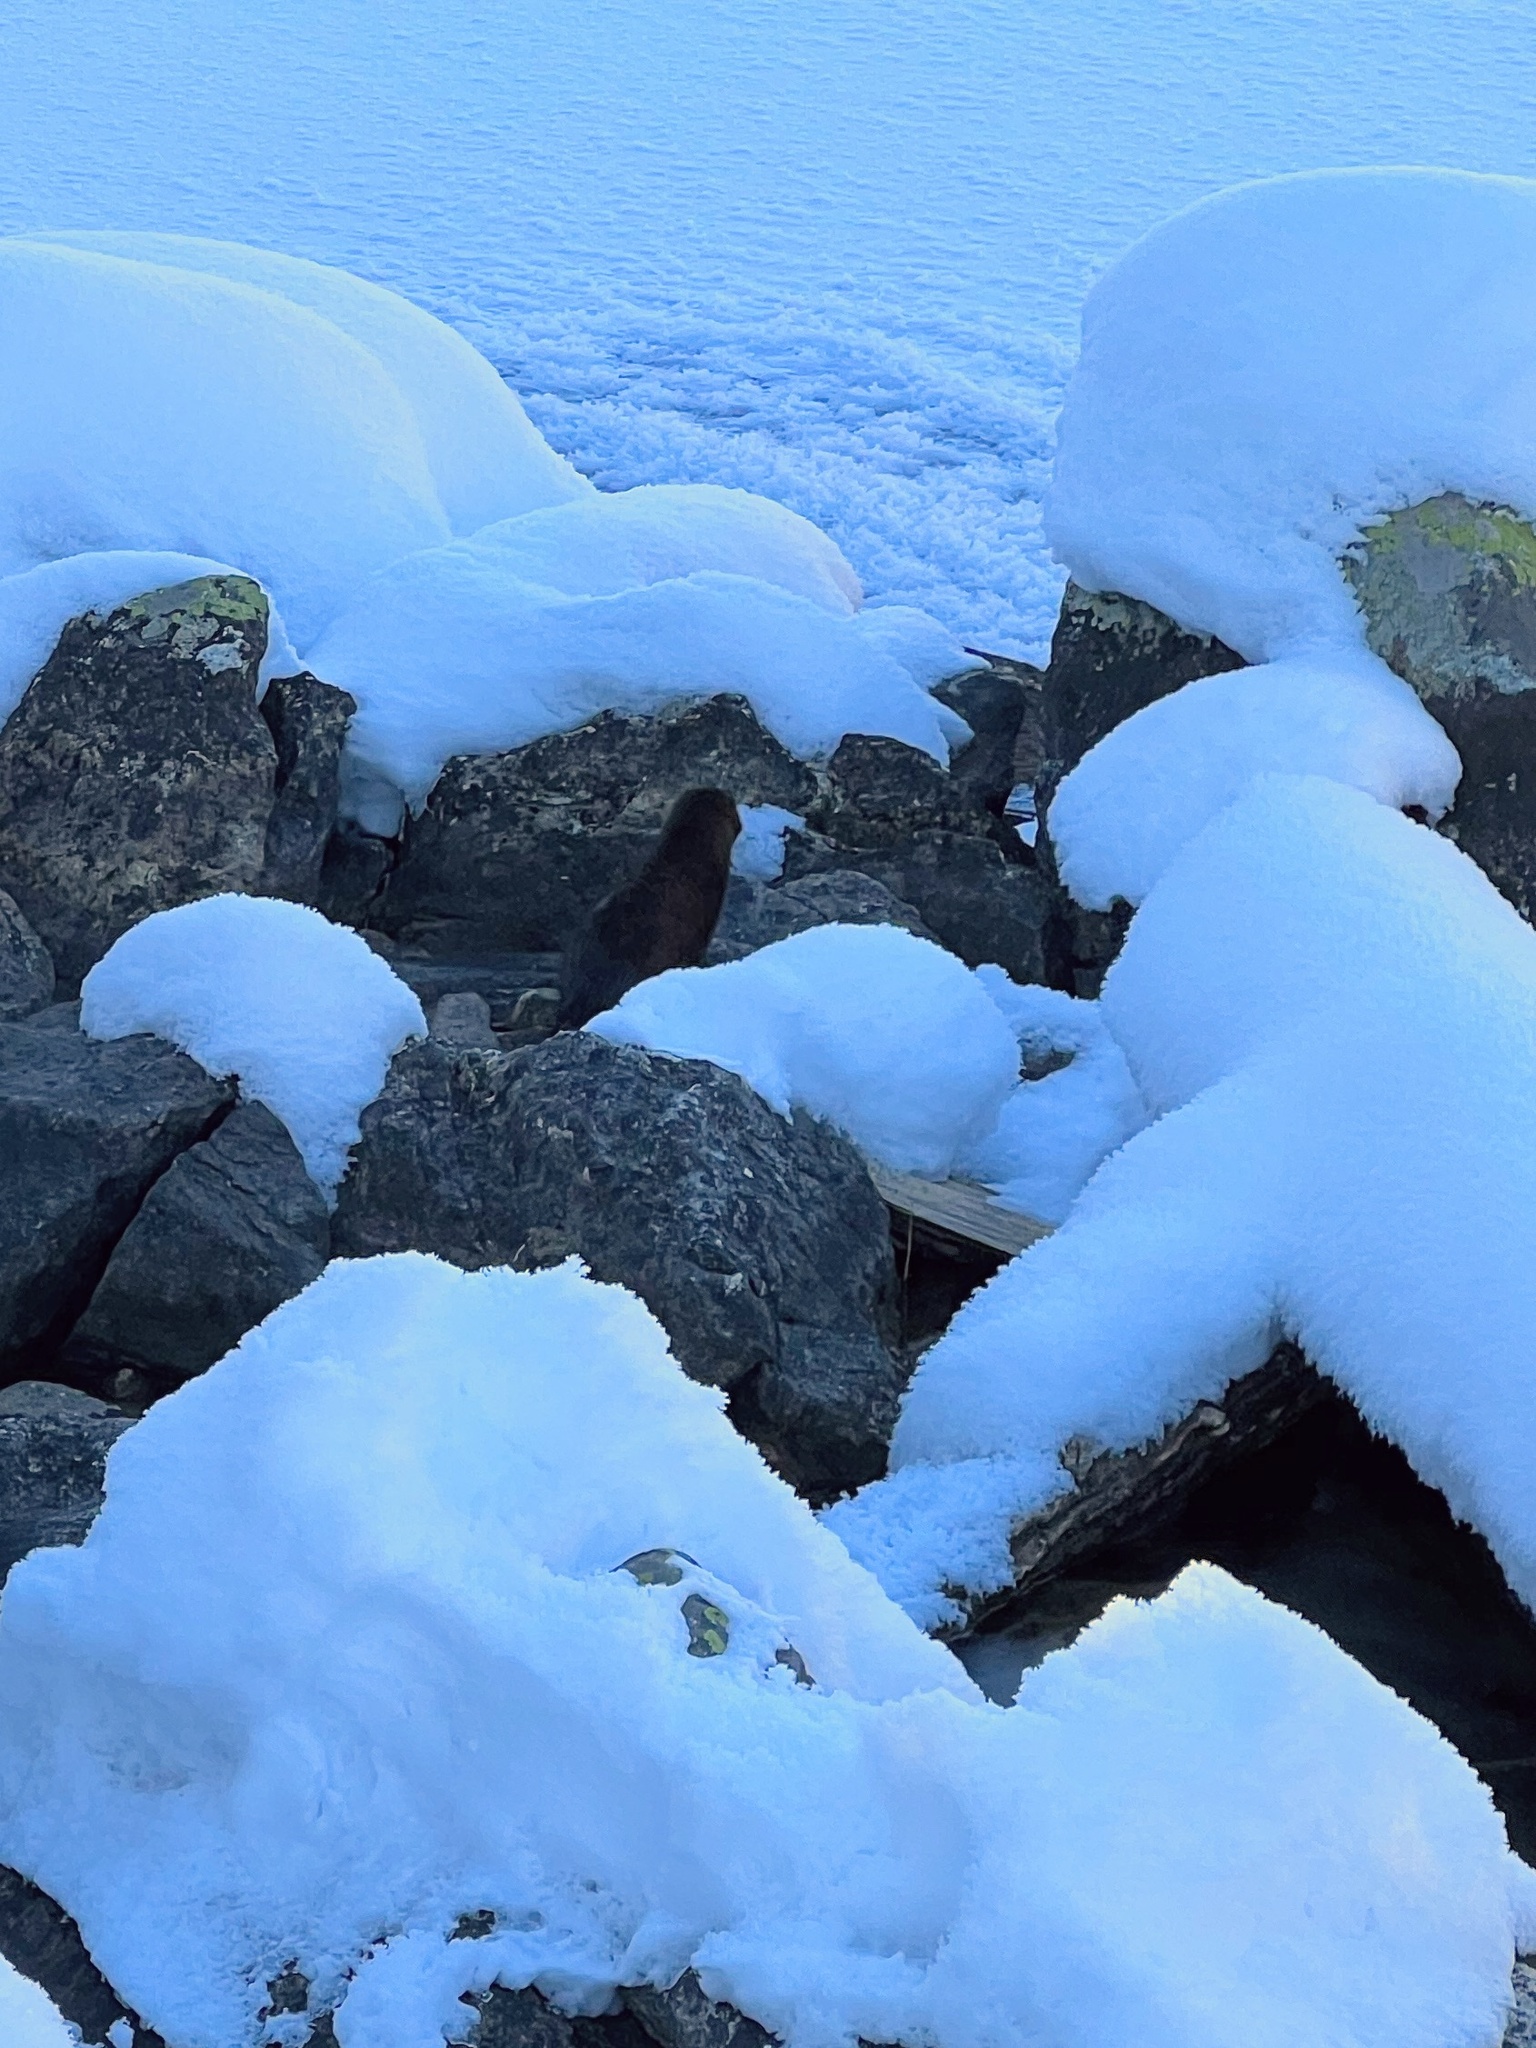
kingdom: Animalia
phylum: Chordata
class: Mammalia
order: Carnivora
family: Mustelidae
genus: Mustela
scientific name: Mustela
